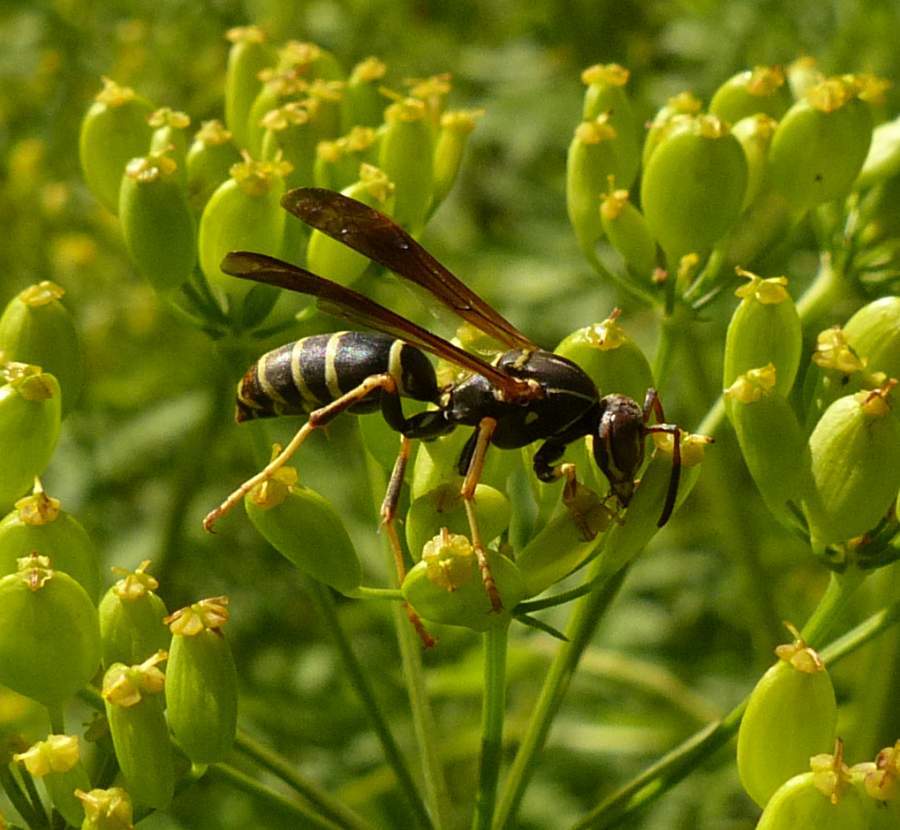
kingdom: Animalia
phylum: Arthropoda
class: Insecta
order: Hymenoptera
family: Eumenidae
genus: Polistes
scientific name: Polistes fuscatus
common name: Dark paper wasp
